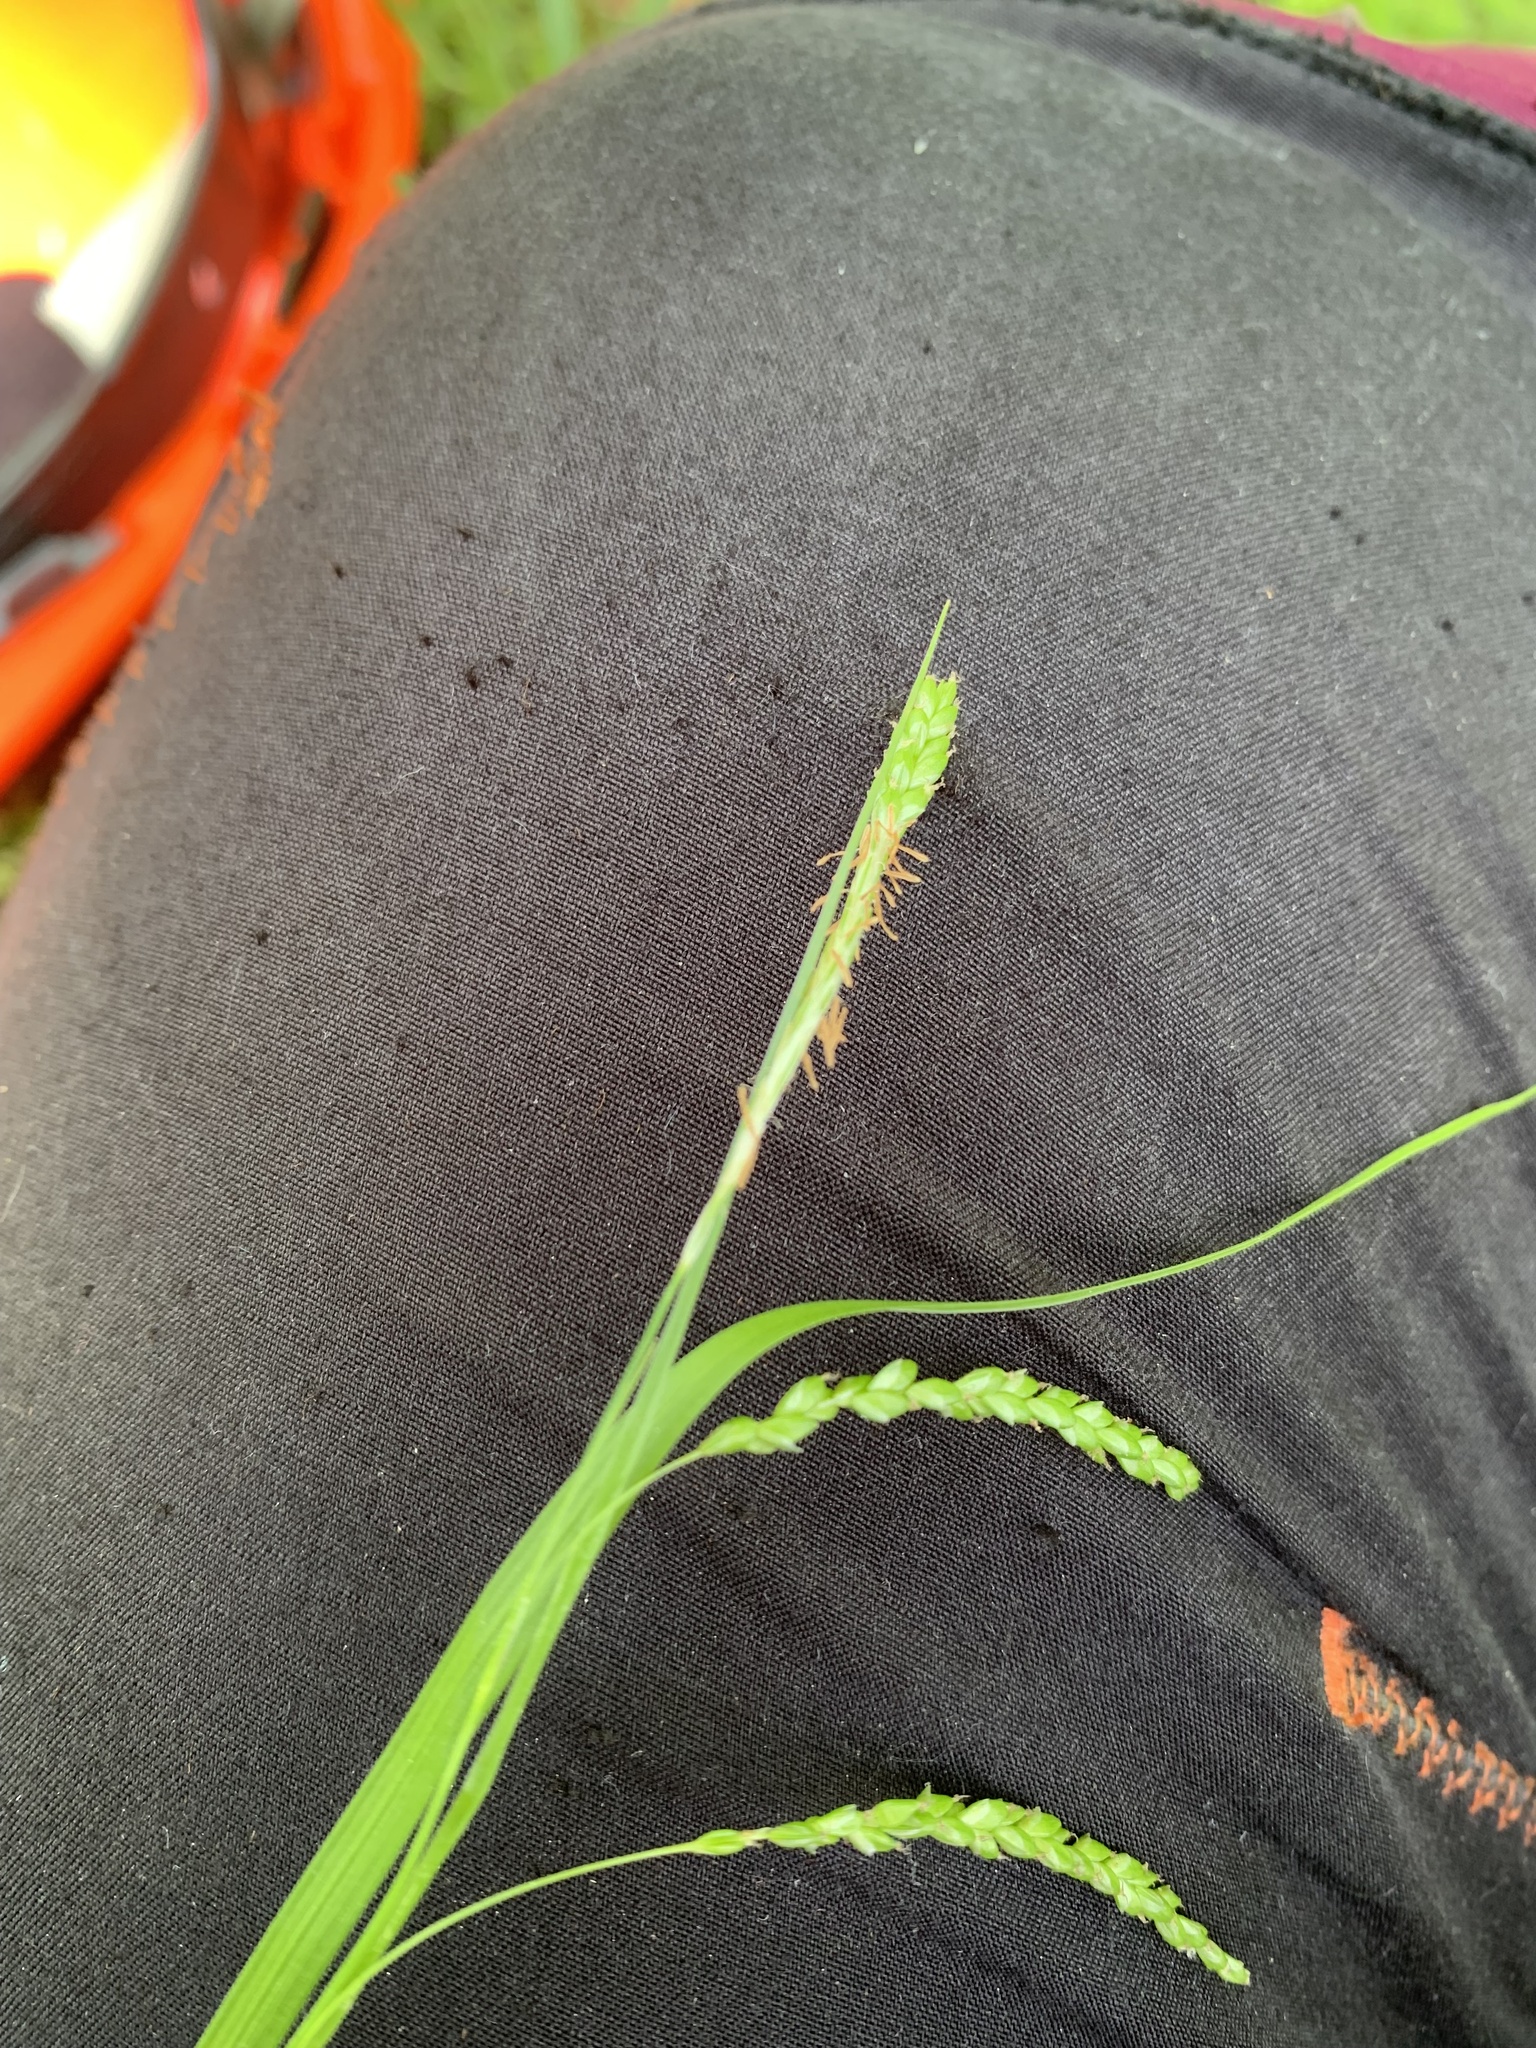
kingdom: Plantae
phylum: Tracheophyta
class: Liliopsida
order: Poales
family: Cyperaceae
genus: Carex
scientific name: Carex gracillima
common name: Graceful sedge
